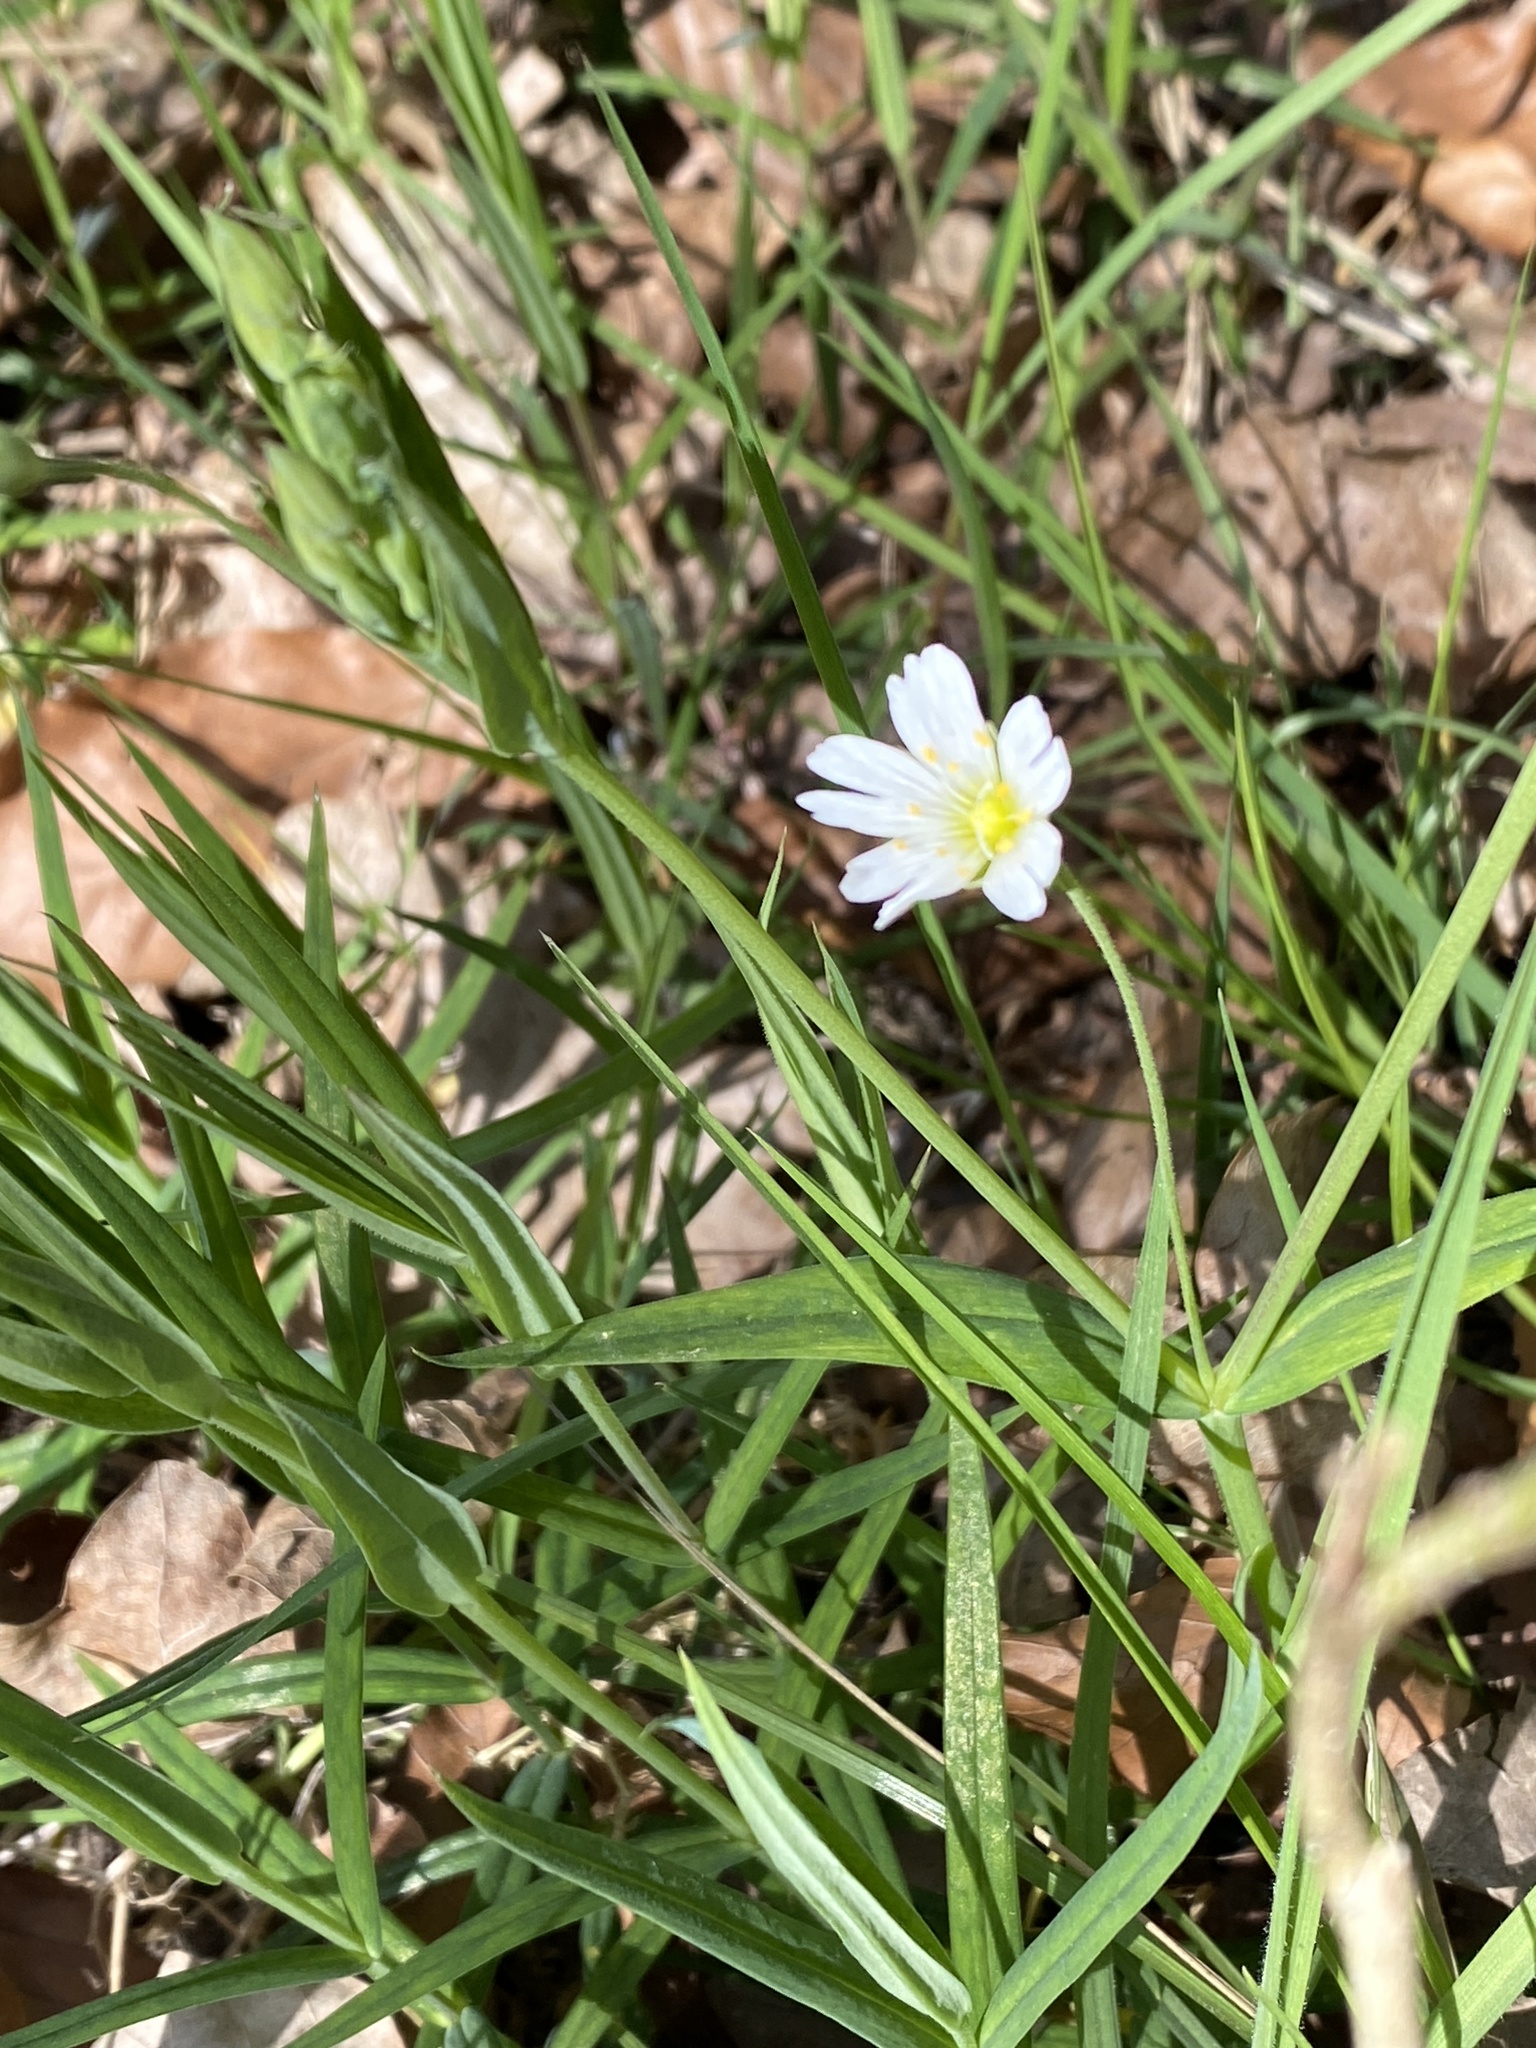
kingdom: Plantae
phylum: Tracheophyta
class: Magnoliopsida
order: Caryophyllales
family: Caryophyllaceae
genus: Rabelera
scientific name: Rabelera holostea
